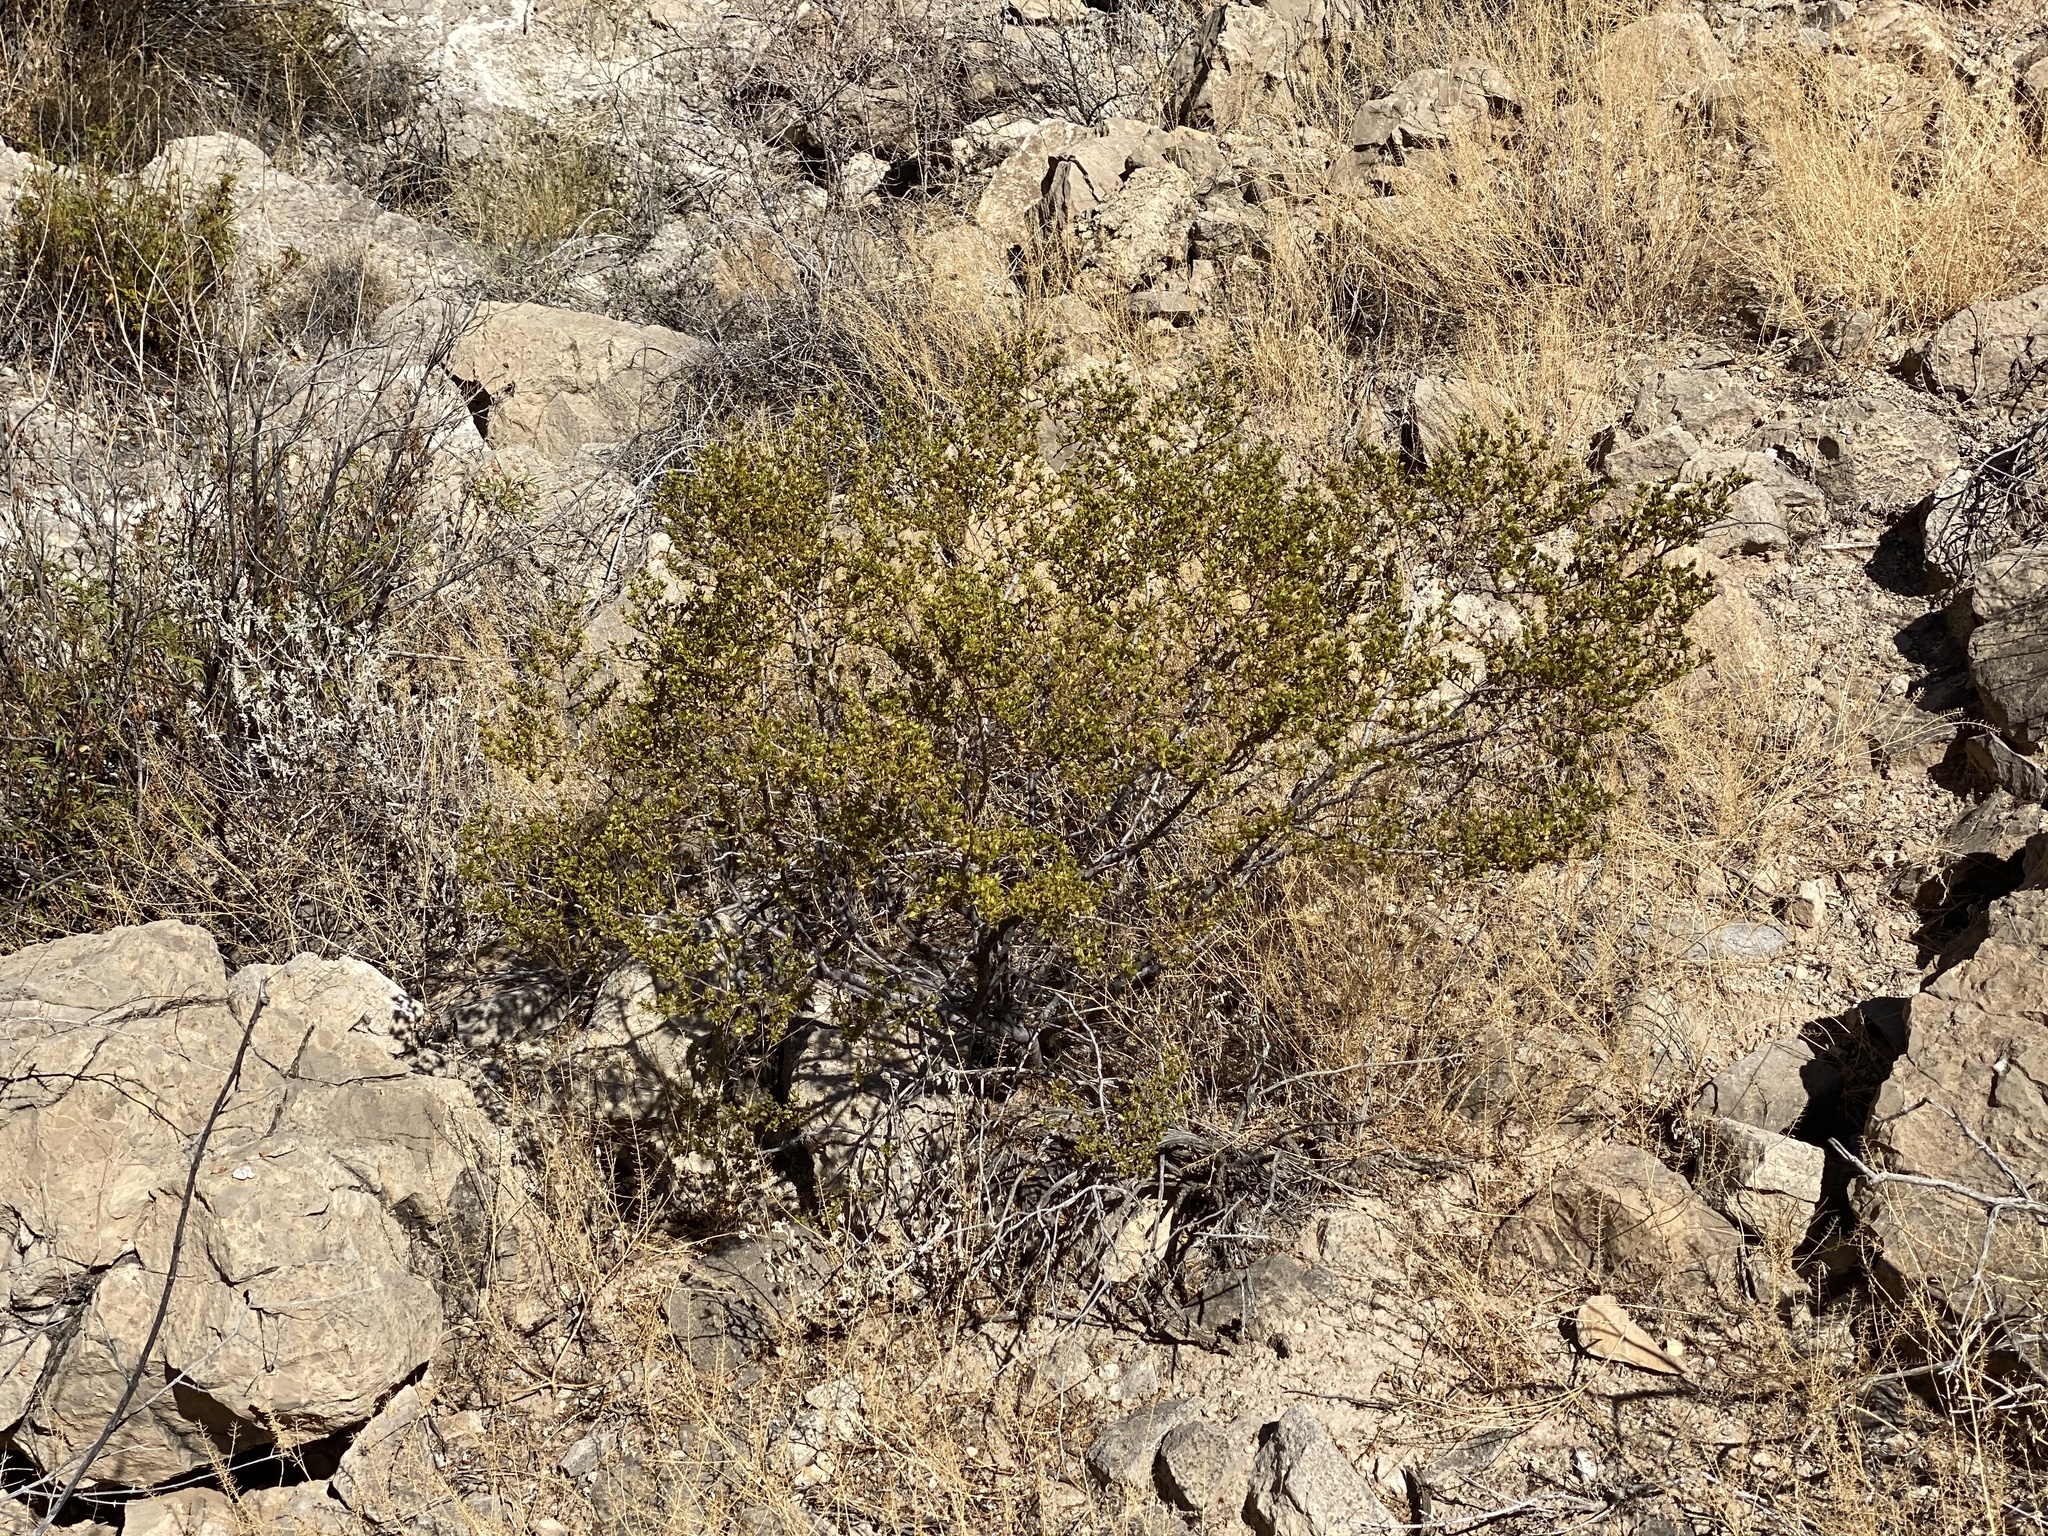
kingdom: Plantae
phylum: Tracheophyta
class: Magnoliopsida
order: Zygophyllales
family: Zygophyllaceae
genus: Larrea
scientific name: Larrea tridentata
